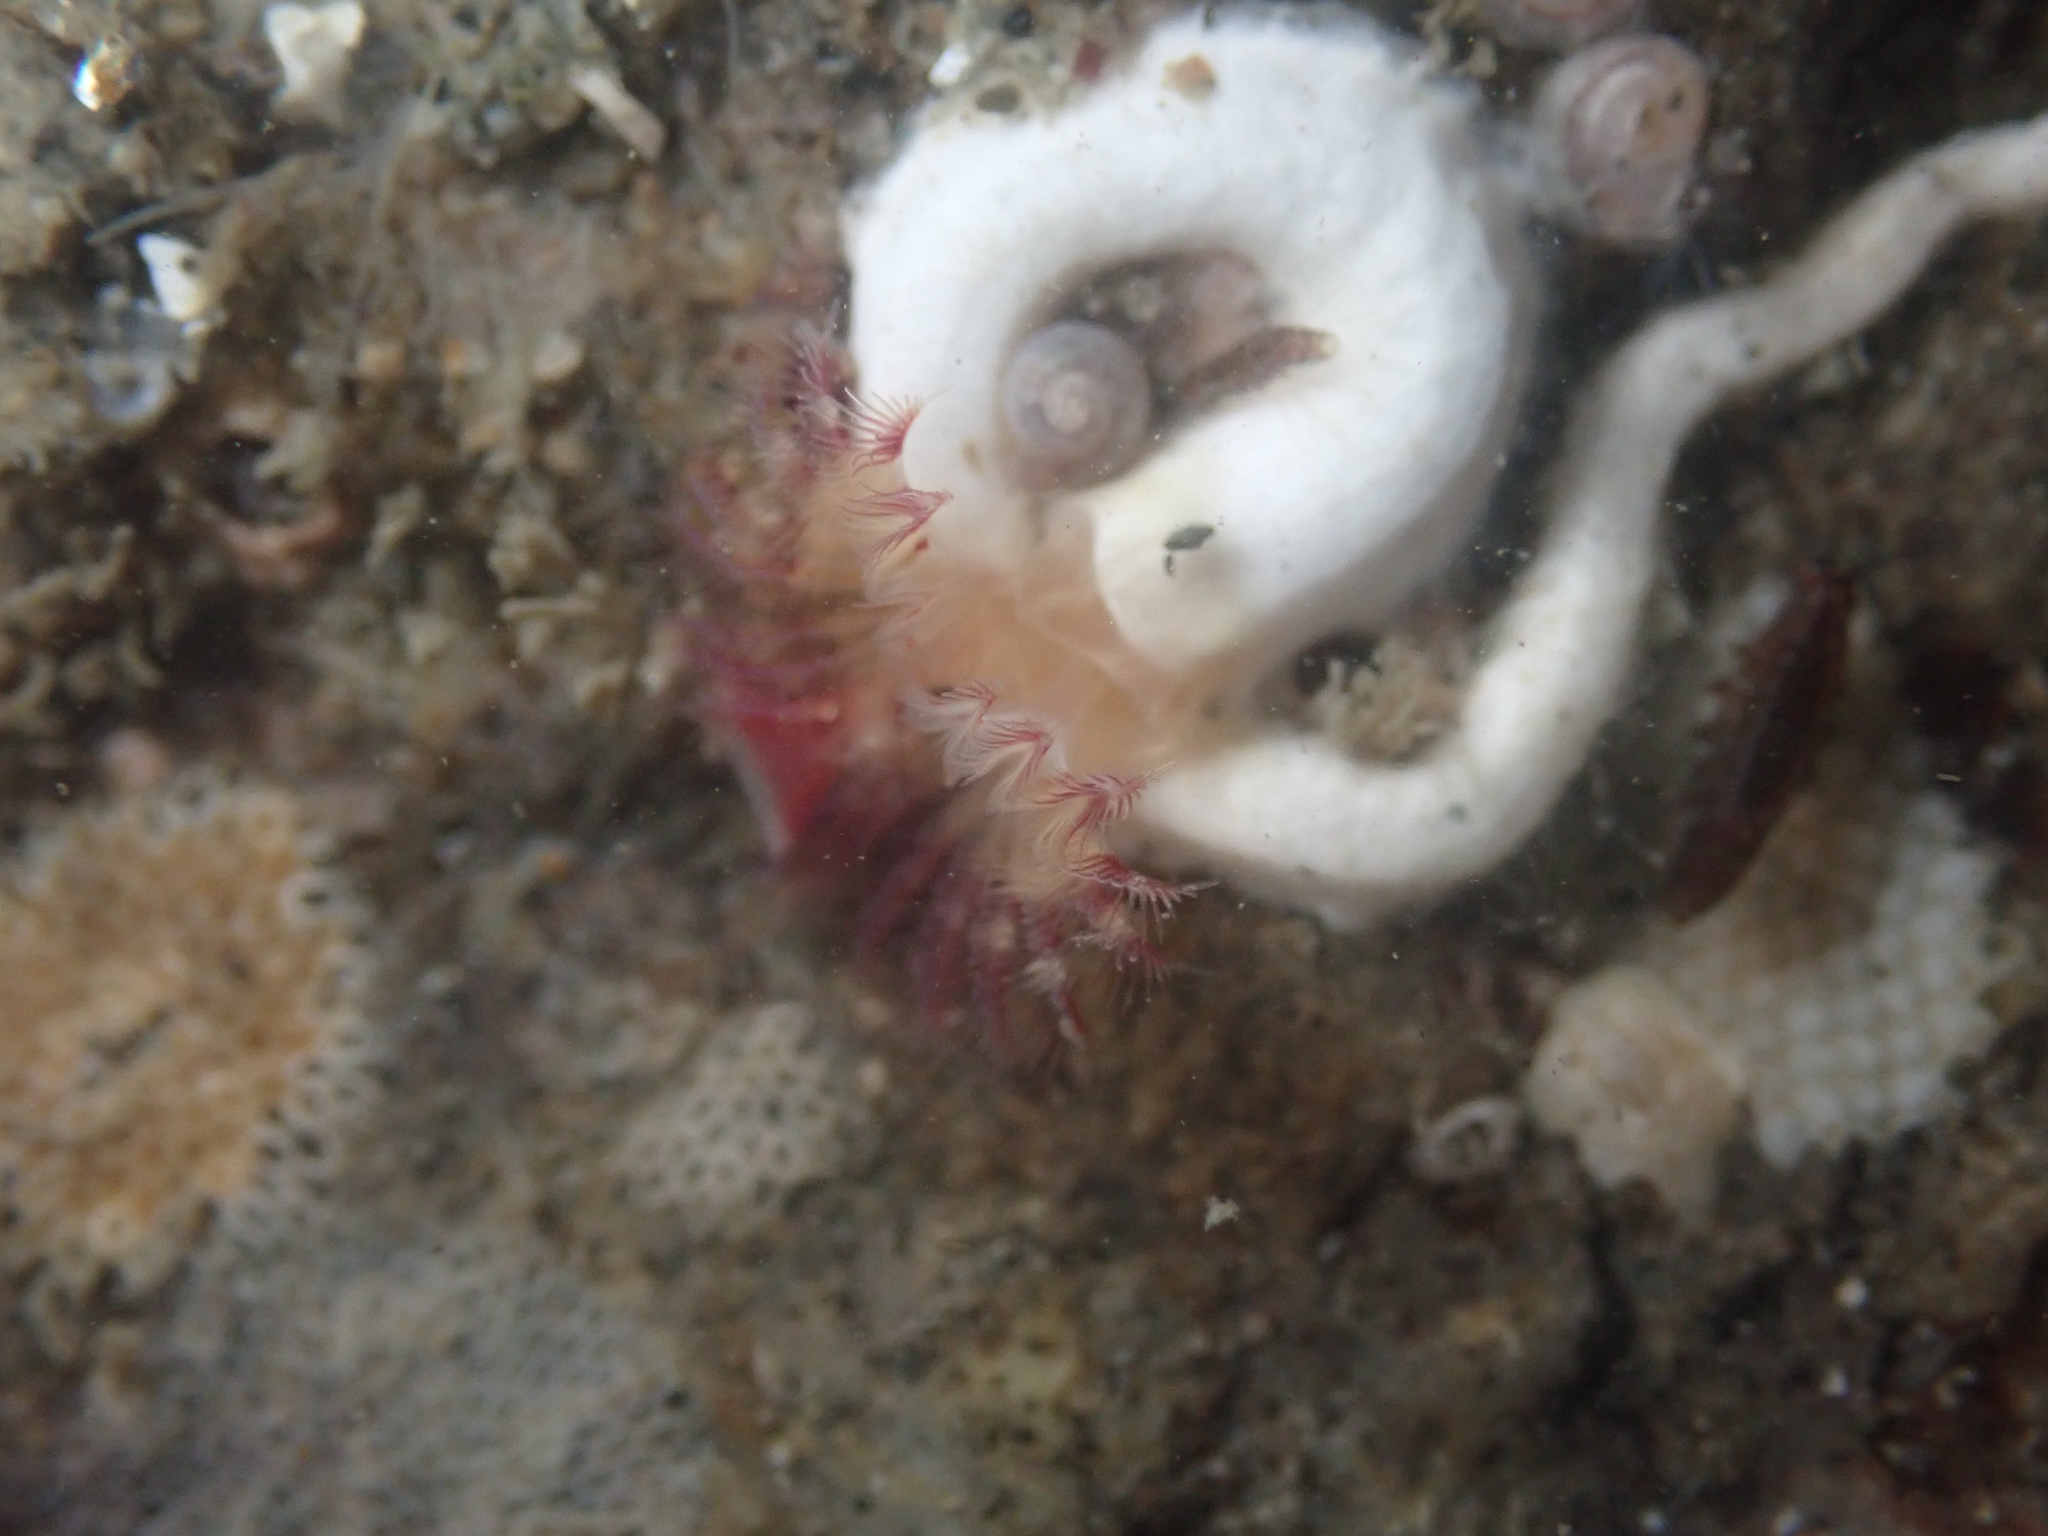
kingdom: Animalia
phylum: Annelida
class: Polychaeta
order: Sabellida
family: Serpulidae
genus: Serpula
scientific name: Serpula columbiana
